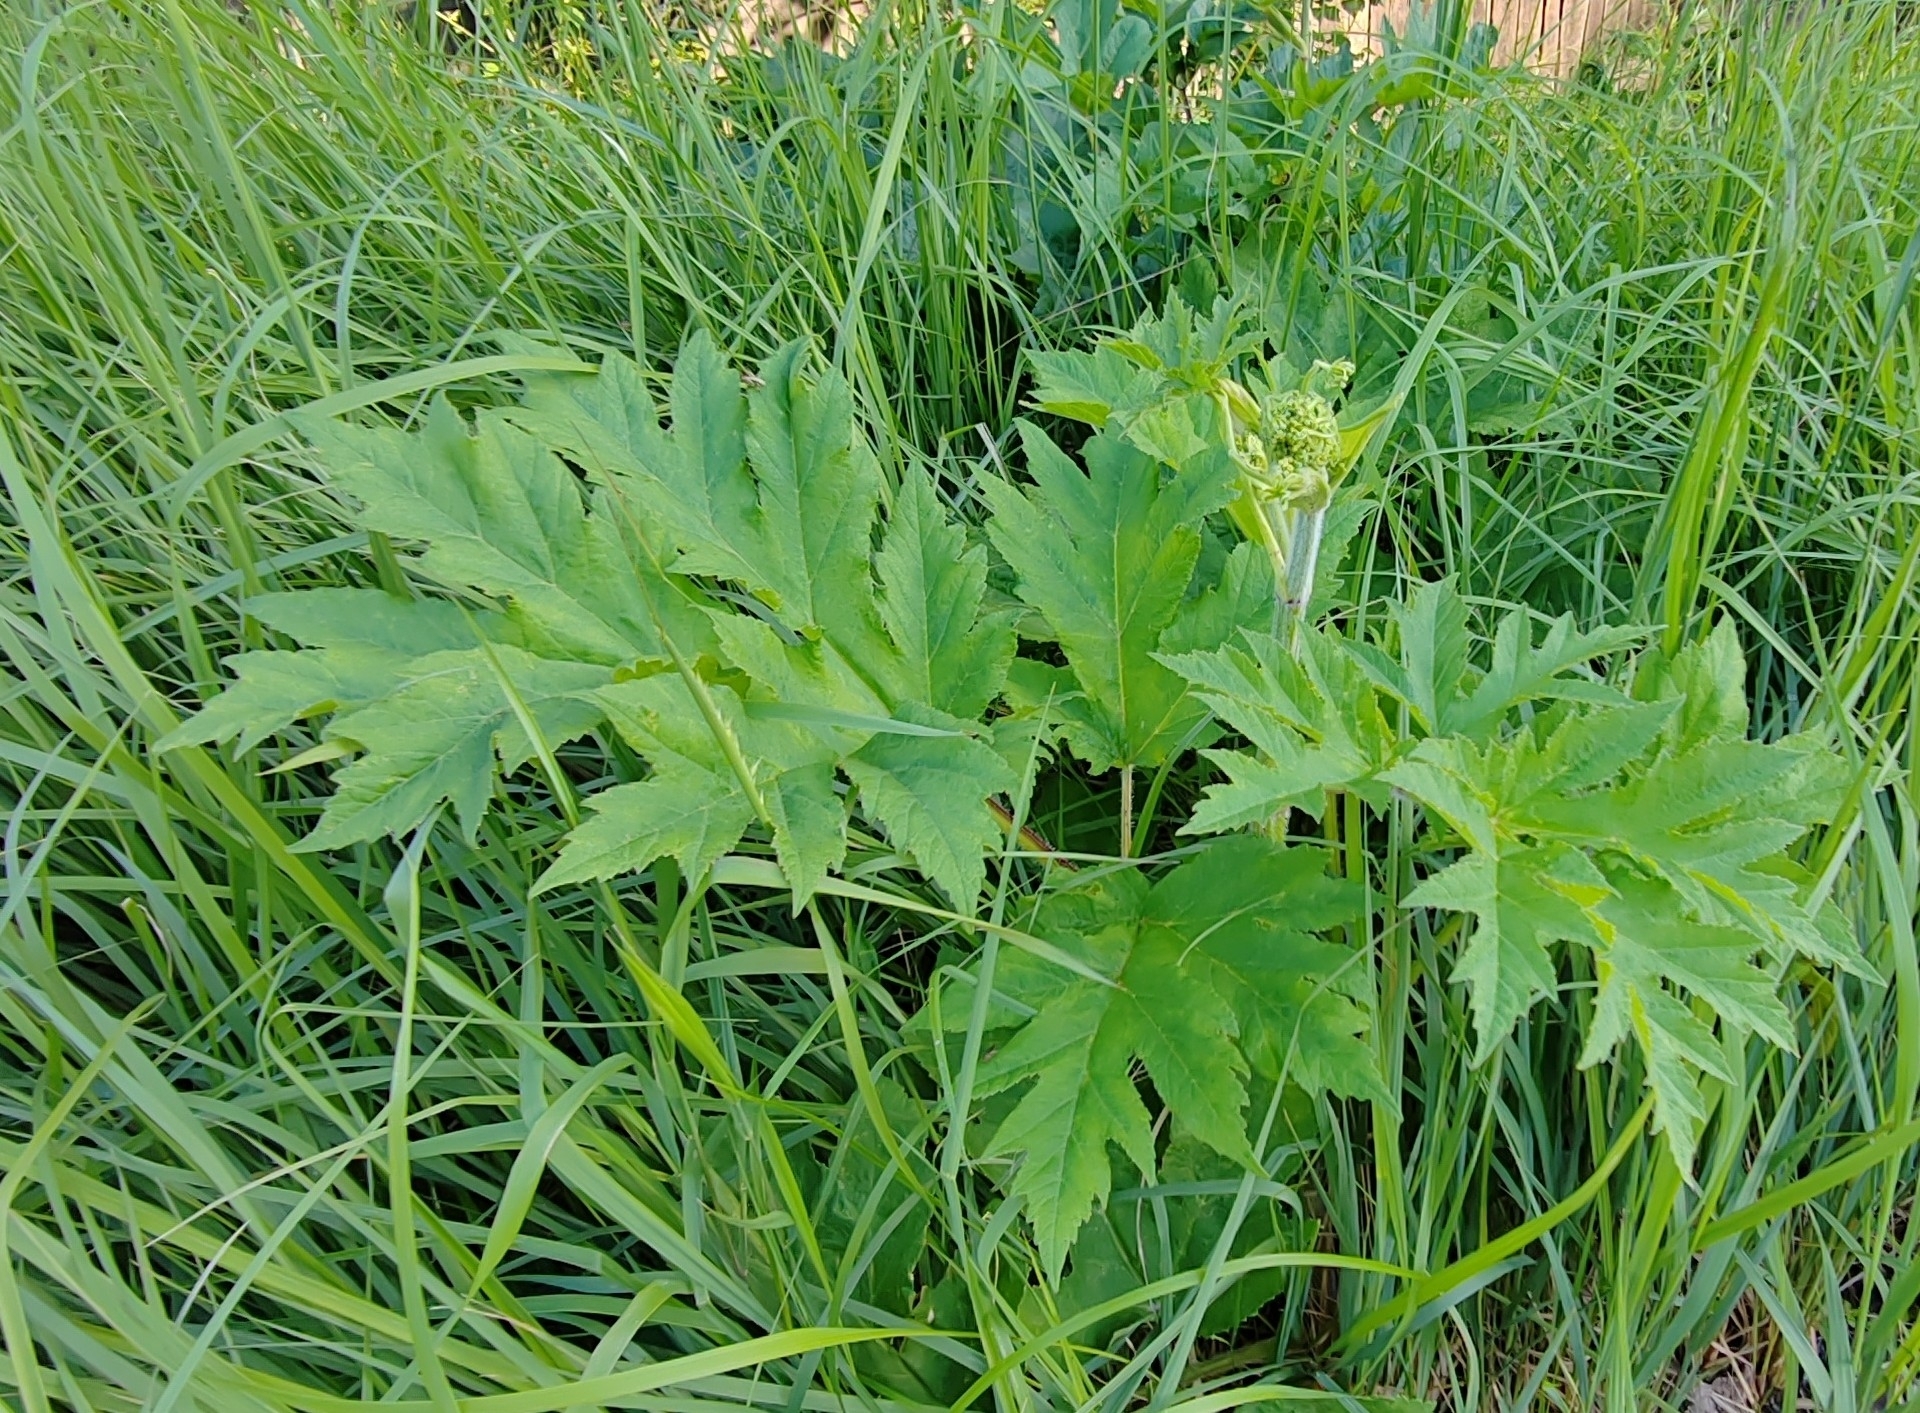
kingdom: Plantae
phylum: Tracheophyta
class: Magnoliopsida
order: Apiales
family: Apiaceae
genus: Heracleum
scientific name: Heracleum sphondylium
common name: Hogweed
